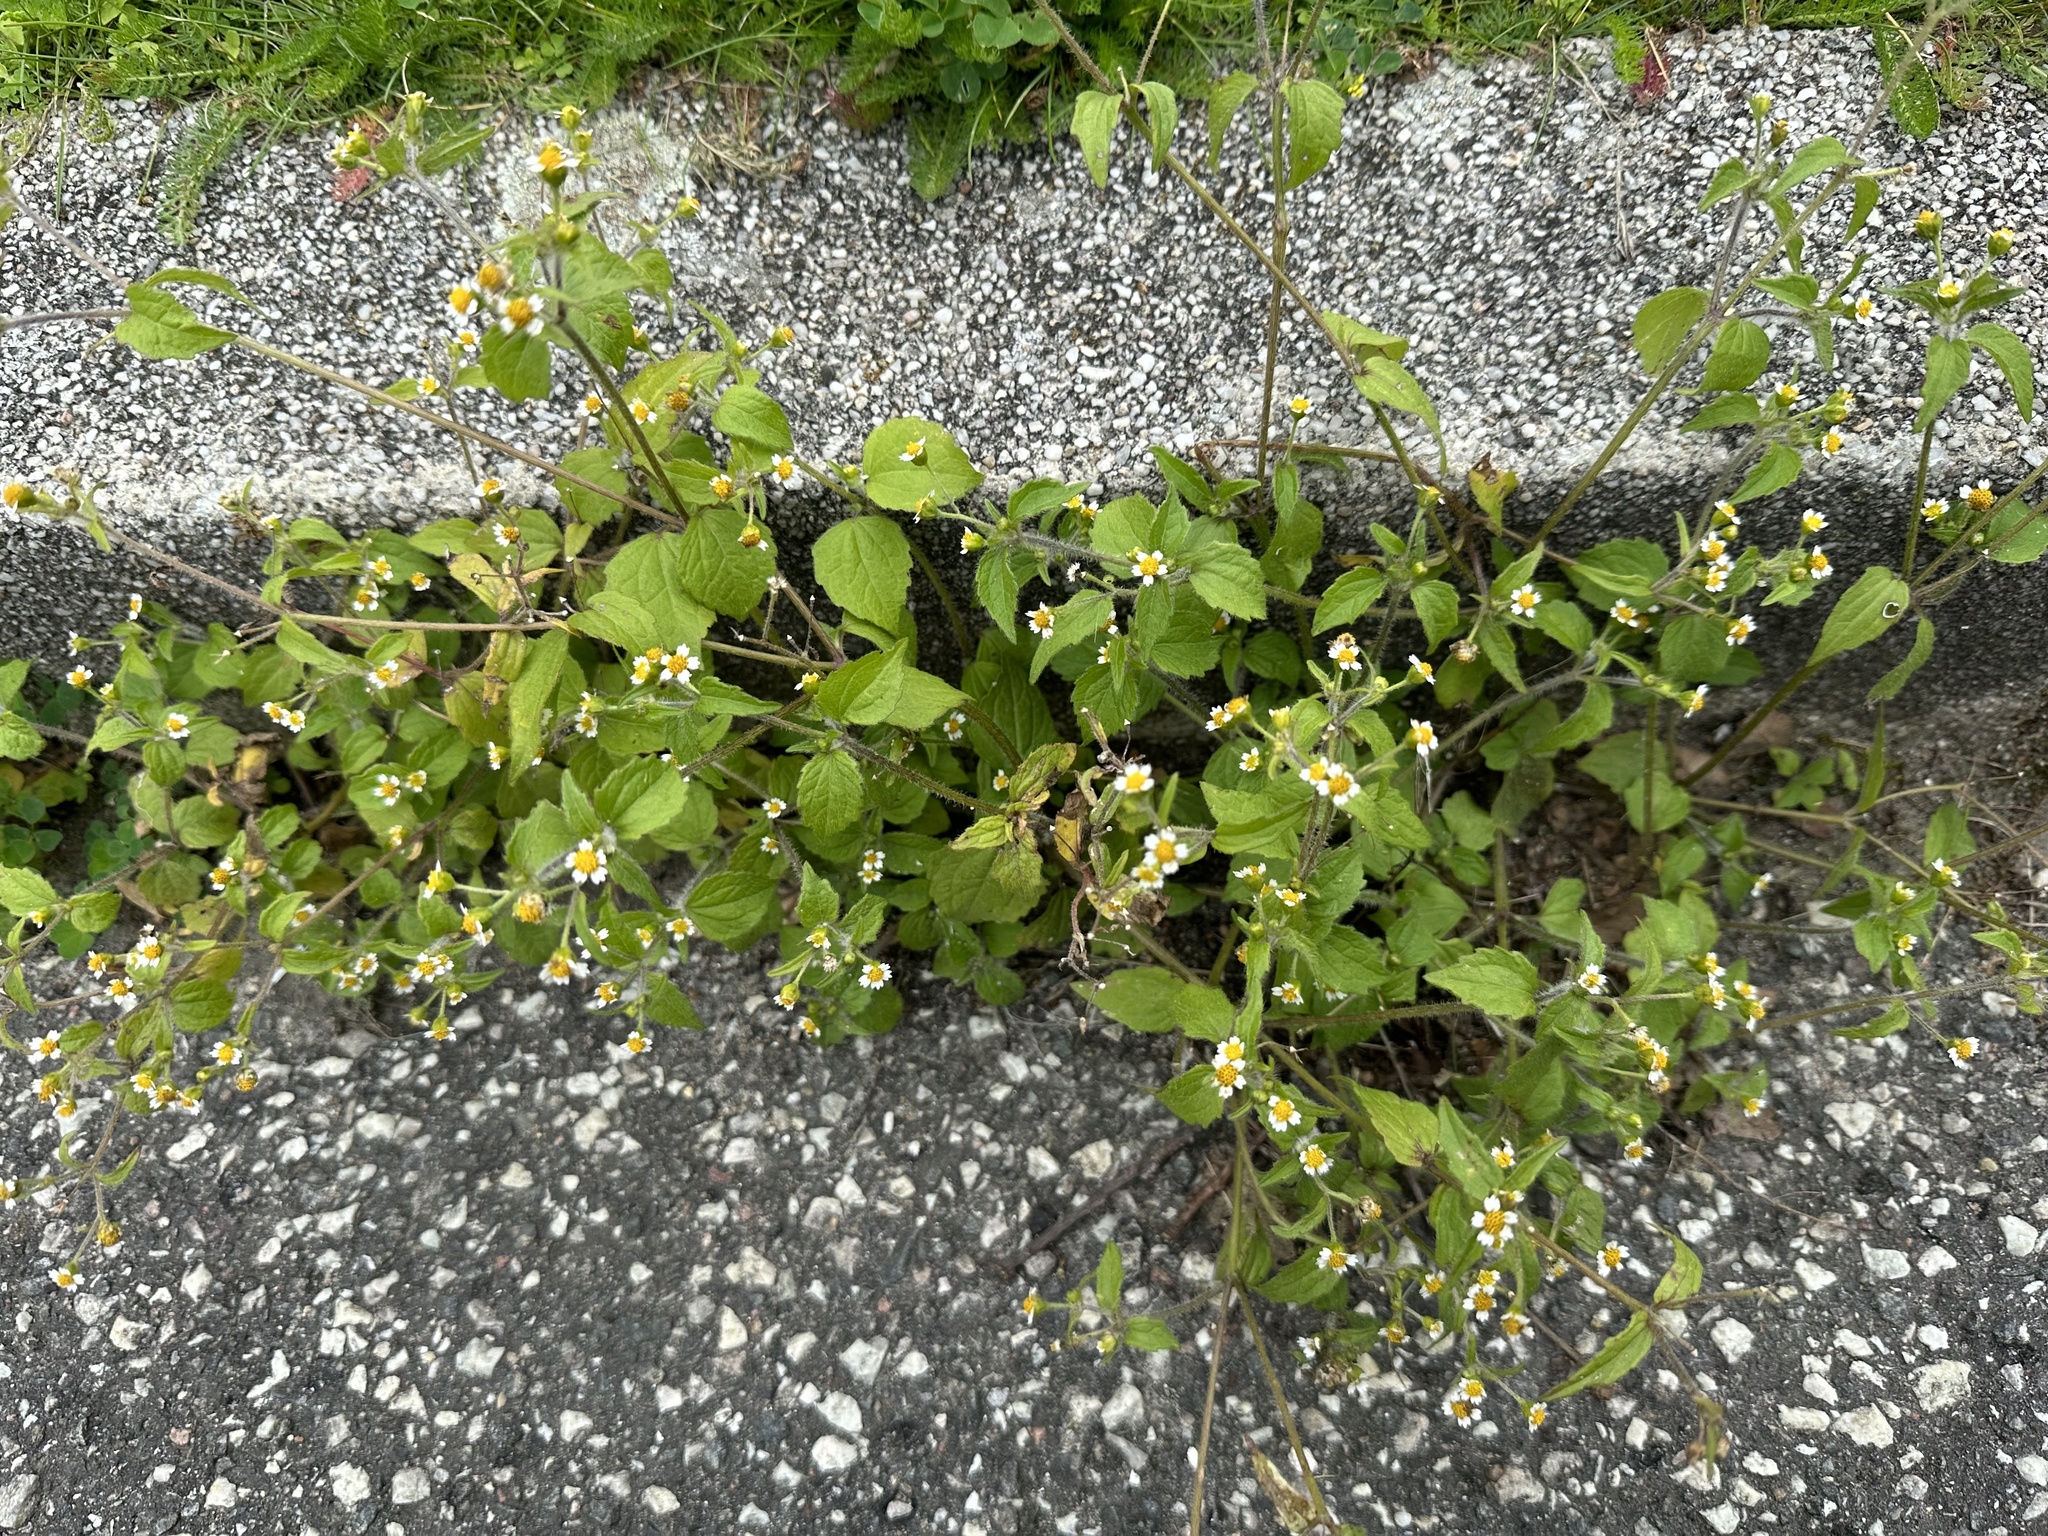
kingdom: Plantae
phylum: Tracheophyta
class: Magnoliopsida
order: Asterales
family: Asteraceae
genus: Galinsoga
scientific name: Galinsoga quadriradiata
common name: Shaggy soldier
